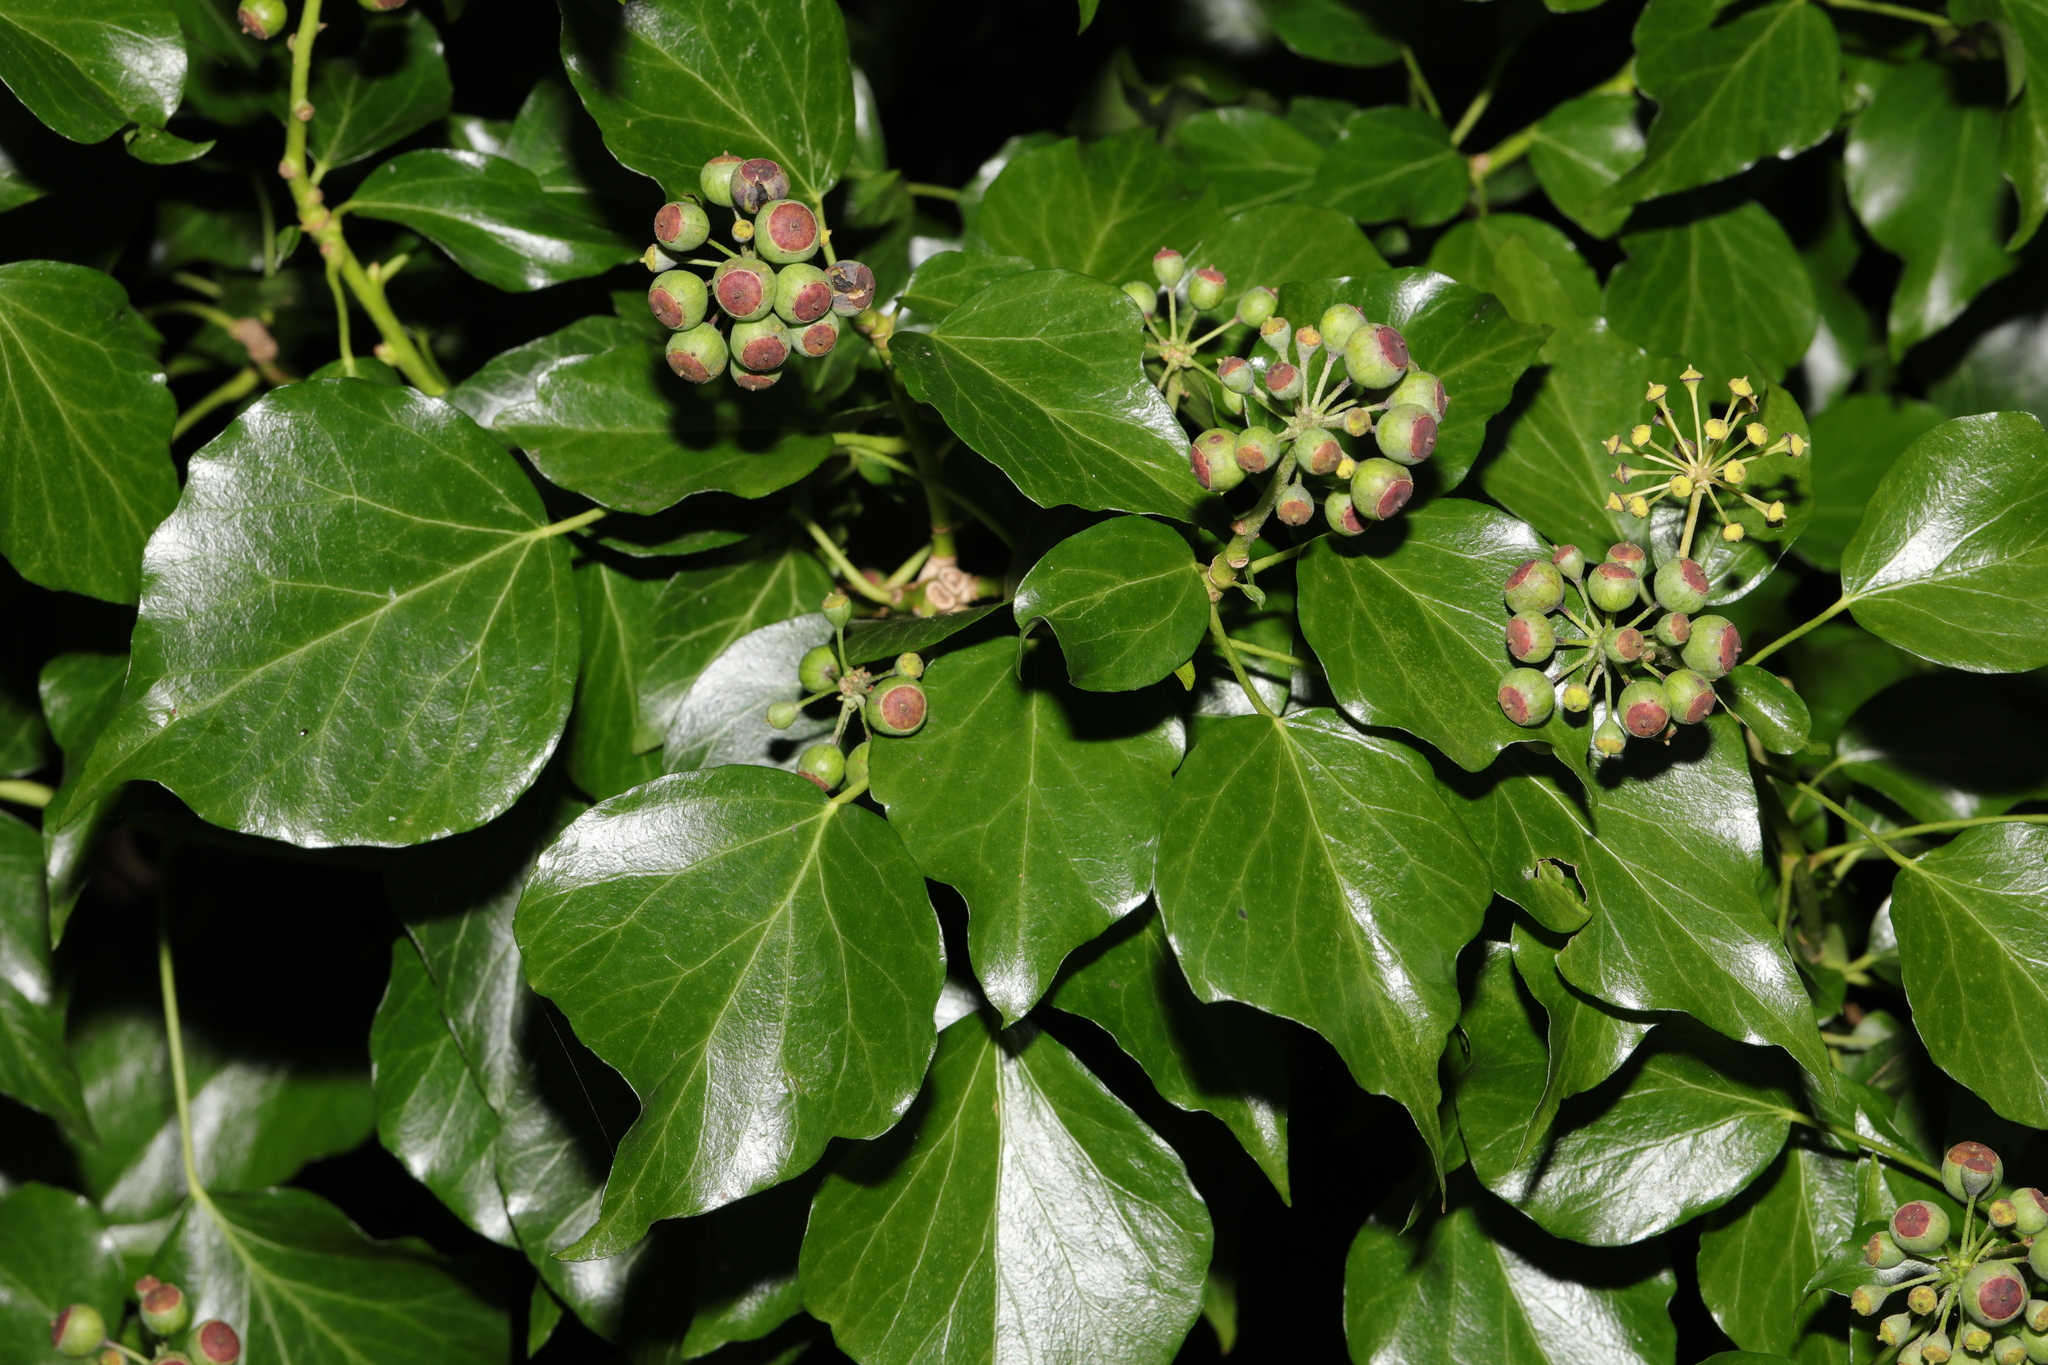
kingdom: Plantae
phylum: Tracheophyta
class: Magnoliopsida
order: Apiales
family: Araliaceae
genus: Hedera
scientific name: Hedera helix
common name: Ivy
